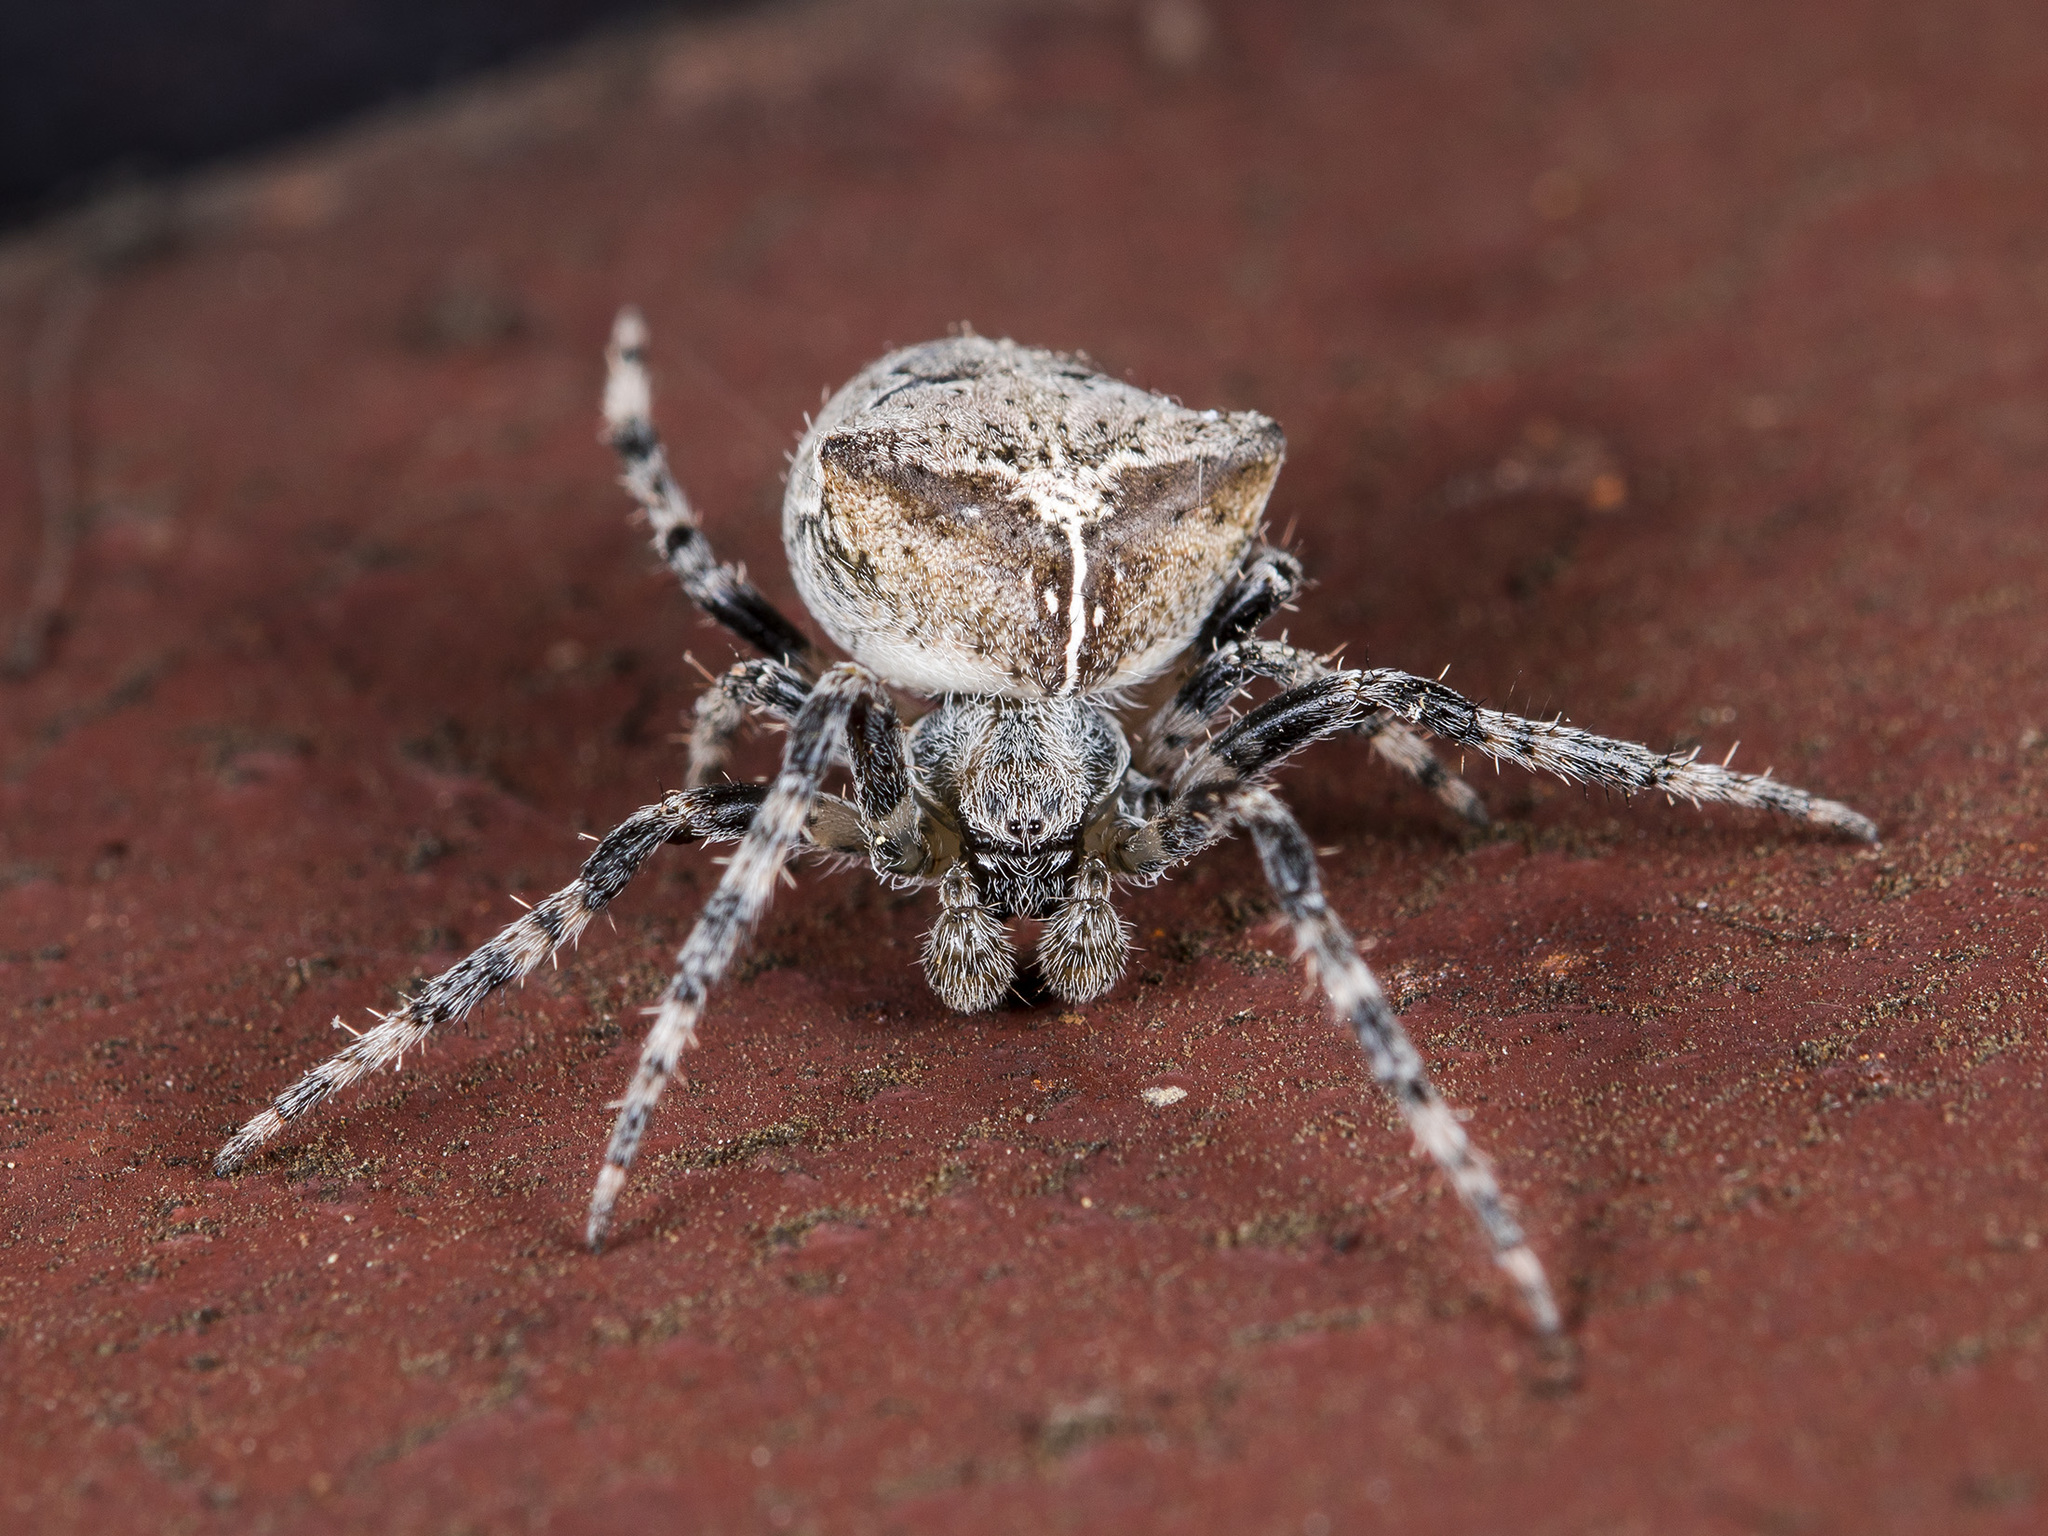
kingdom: Animalia
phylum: Arthropoda
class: Arachnida
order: Araneae
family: Araneidae
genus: Araneus
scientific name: Araneus tartaricus
